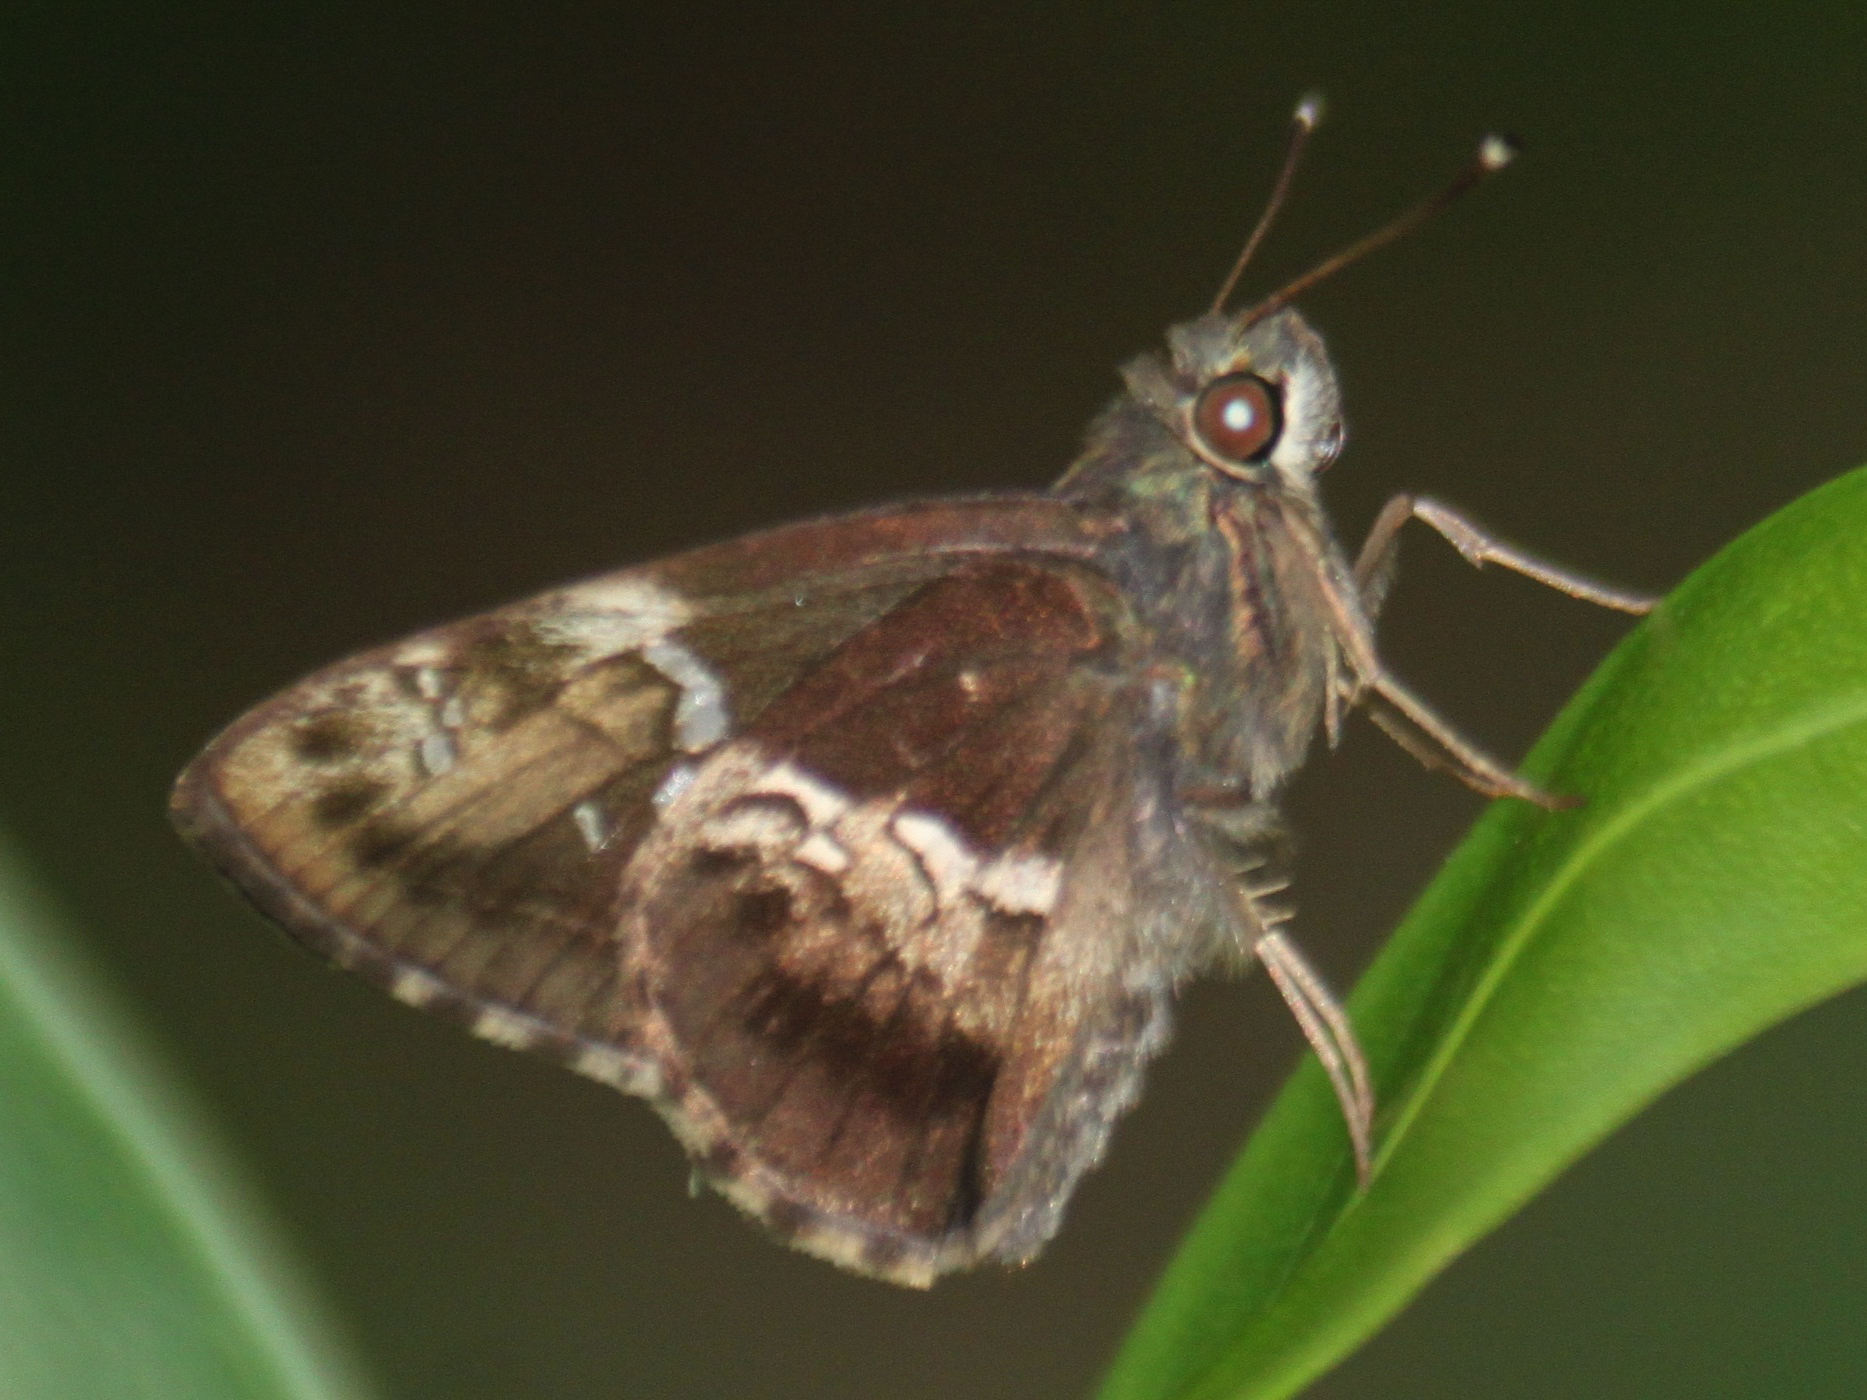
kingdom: Animalia
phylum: Arthropoda
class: Insecta
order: Lepidoptera
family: Hesperiidae
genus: Hyarotis
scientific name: Hyarotis adrastus
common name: Tree flitter
